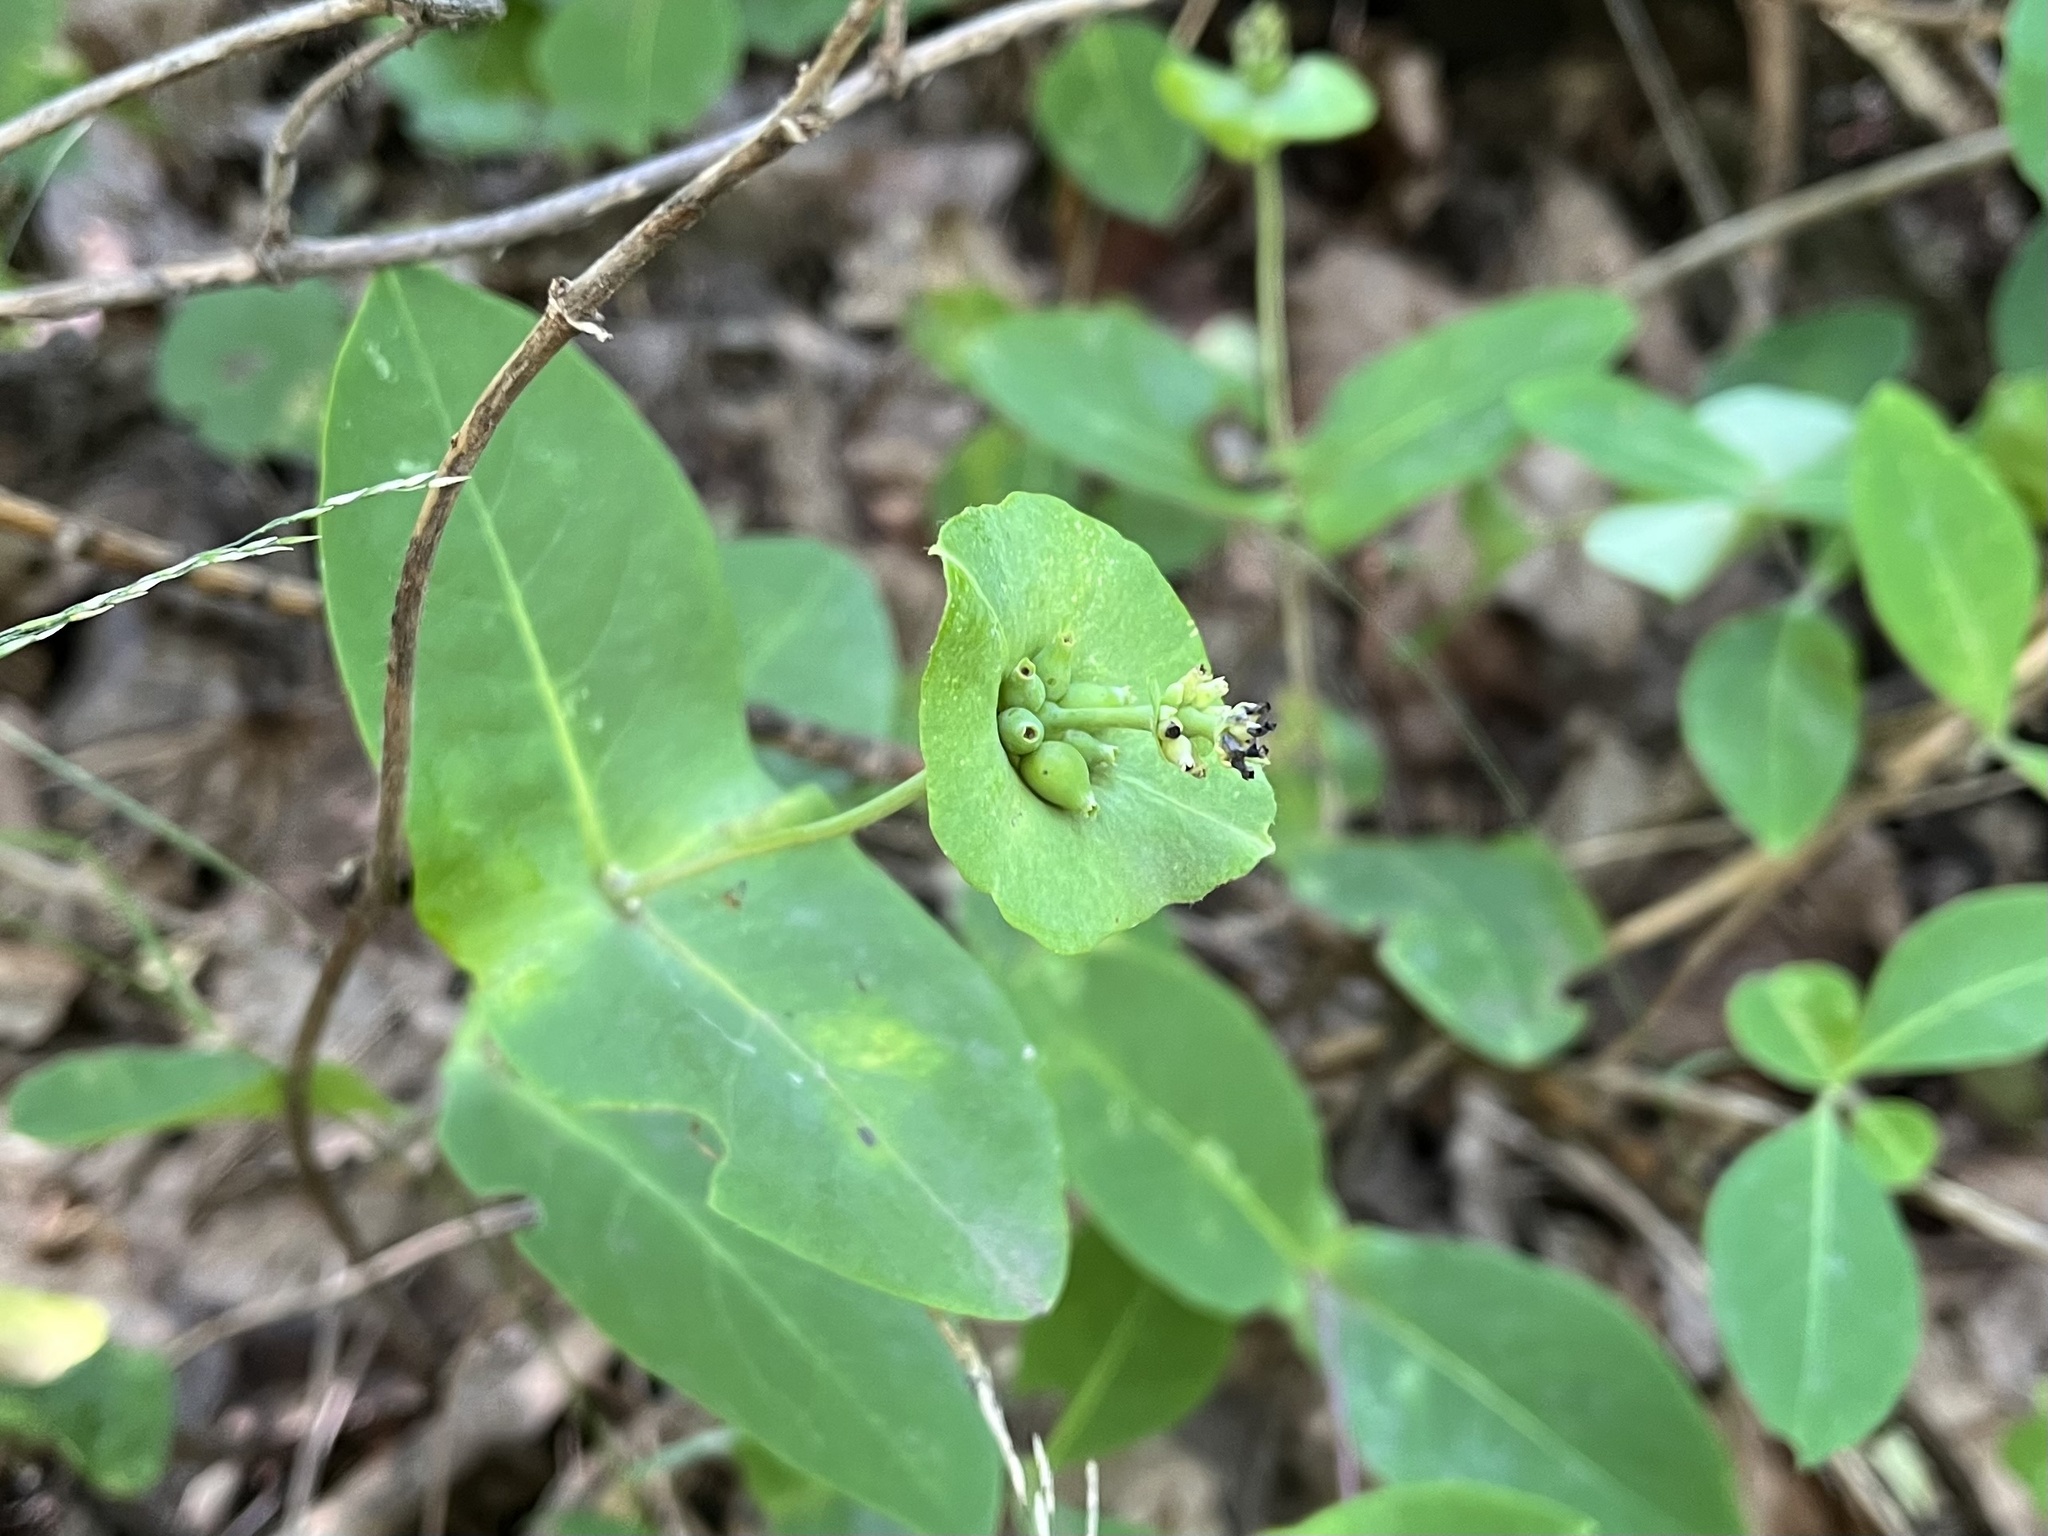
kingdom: Plantae
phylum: Tracheophyta
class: Magnoliopsida
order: Dipsacales
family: Caprifoliaceae
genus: Lonicera
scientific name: Lonicera caprifolium
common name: Perfoliate honeysuckle
